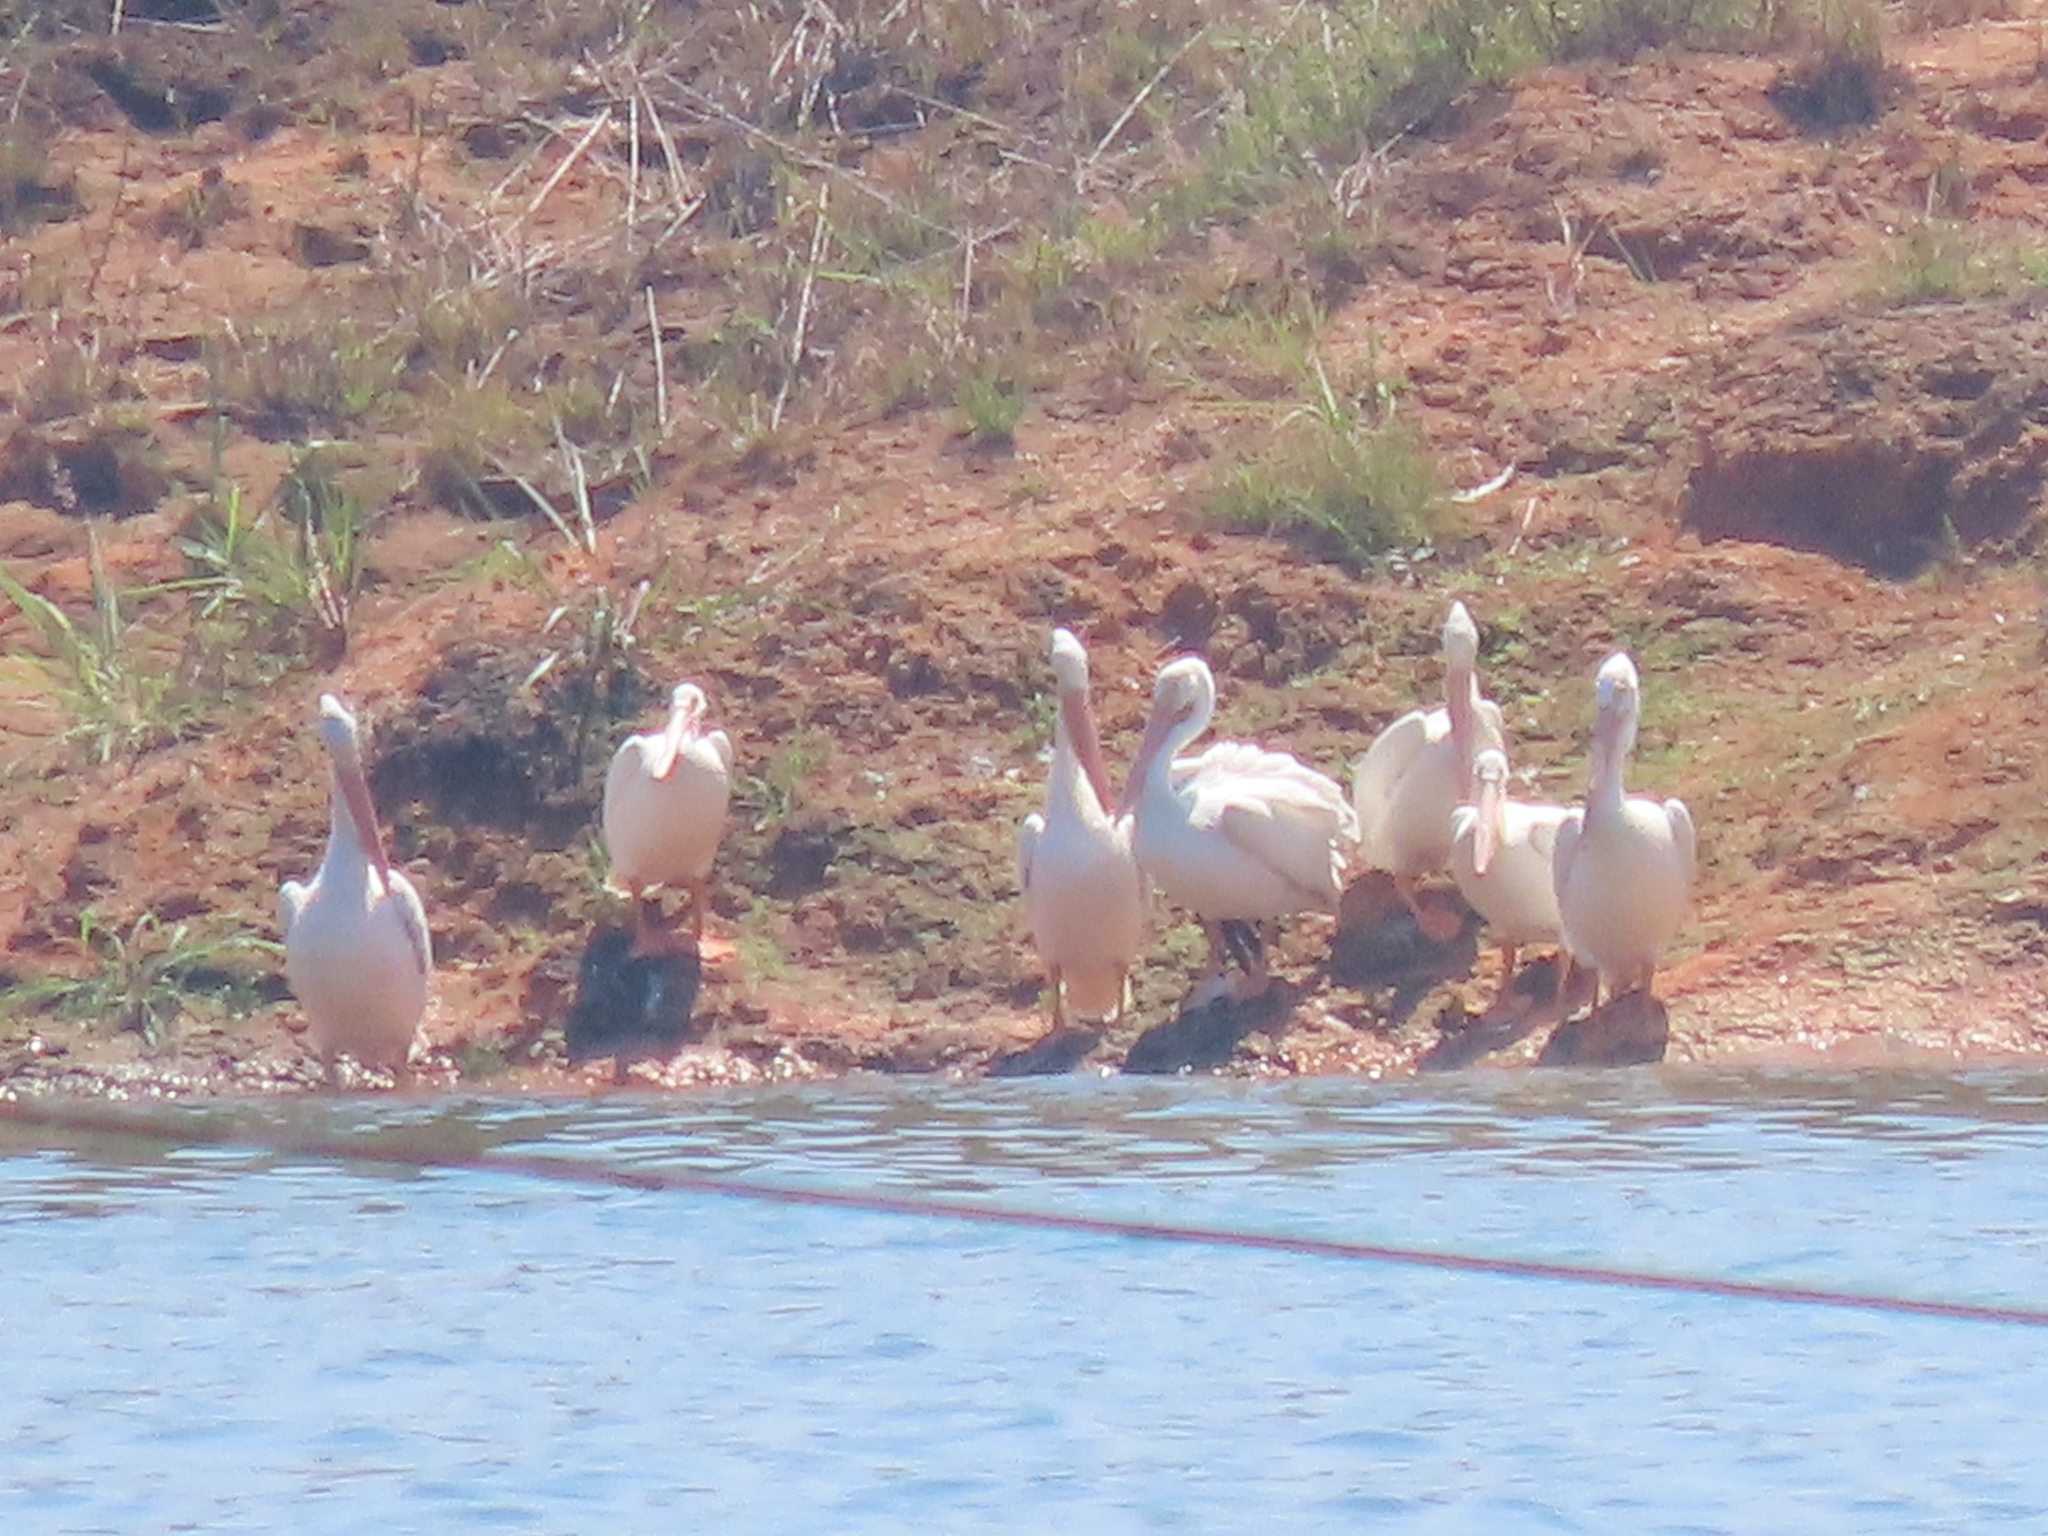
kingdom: Animalia
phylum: Chordata
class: Aves
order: Pelecaniformes
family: Pelecanidae
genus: Pelecanus
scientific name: Pelecanus erythrorhynchos
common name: American white pelican
